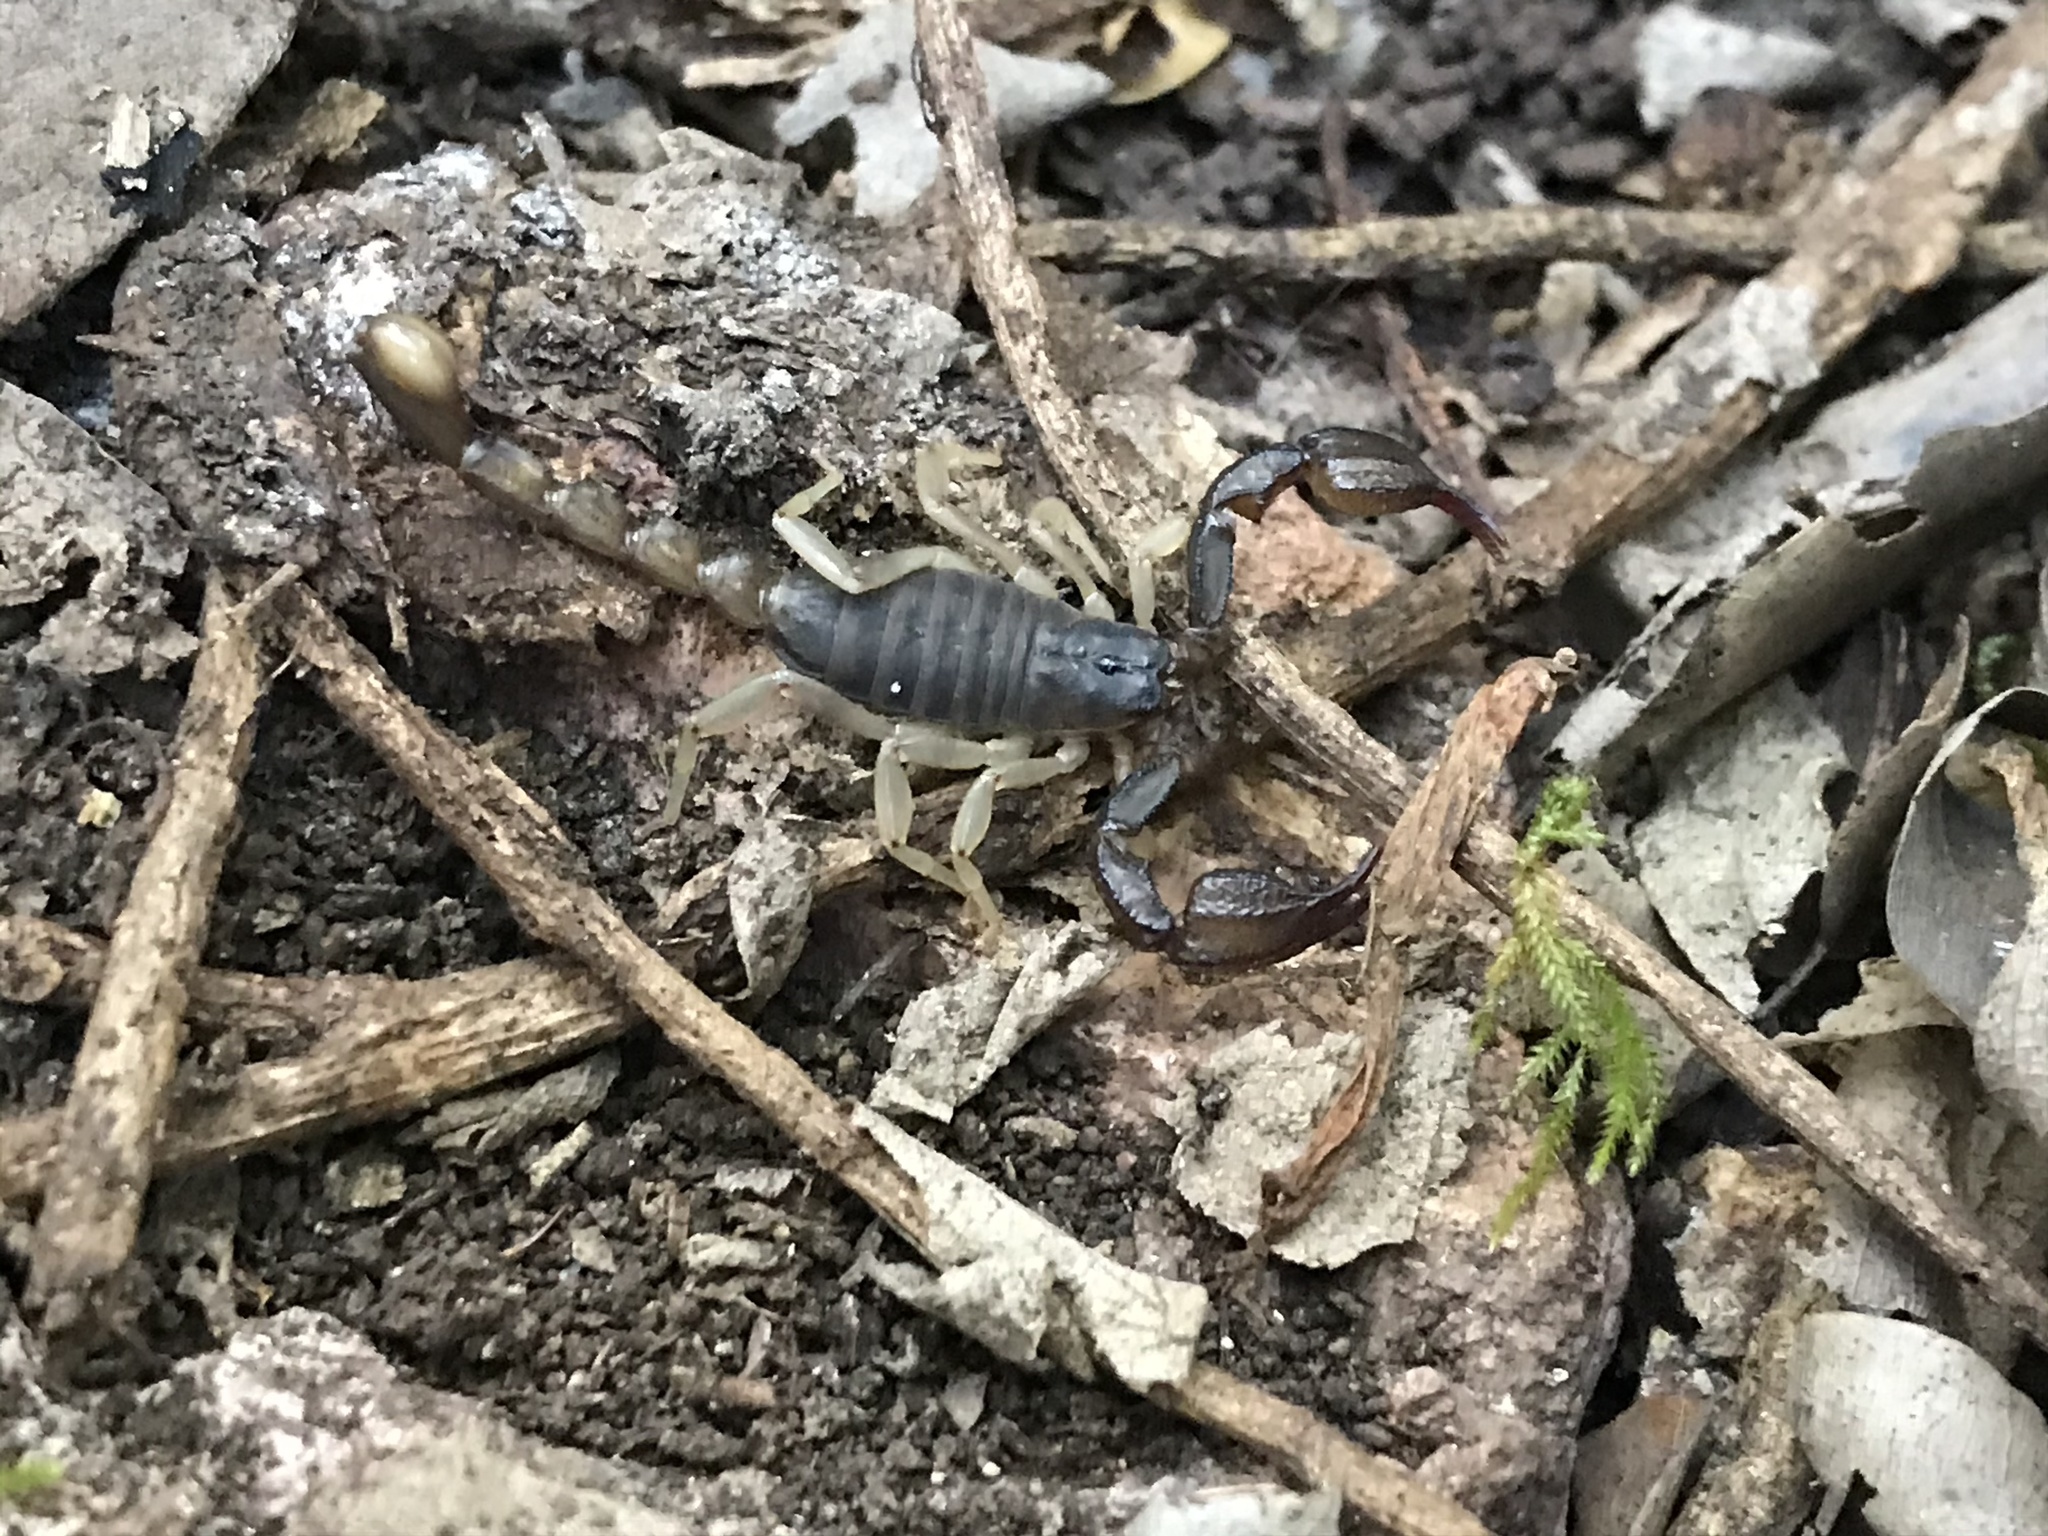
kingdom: Animalia
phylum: Arthropoda
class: Arachnida
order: Scorpiones
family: Chactidae
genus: Uroctonus
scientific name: Uroctonus mordax
